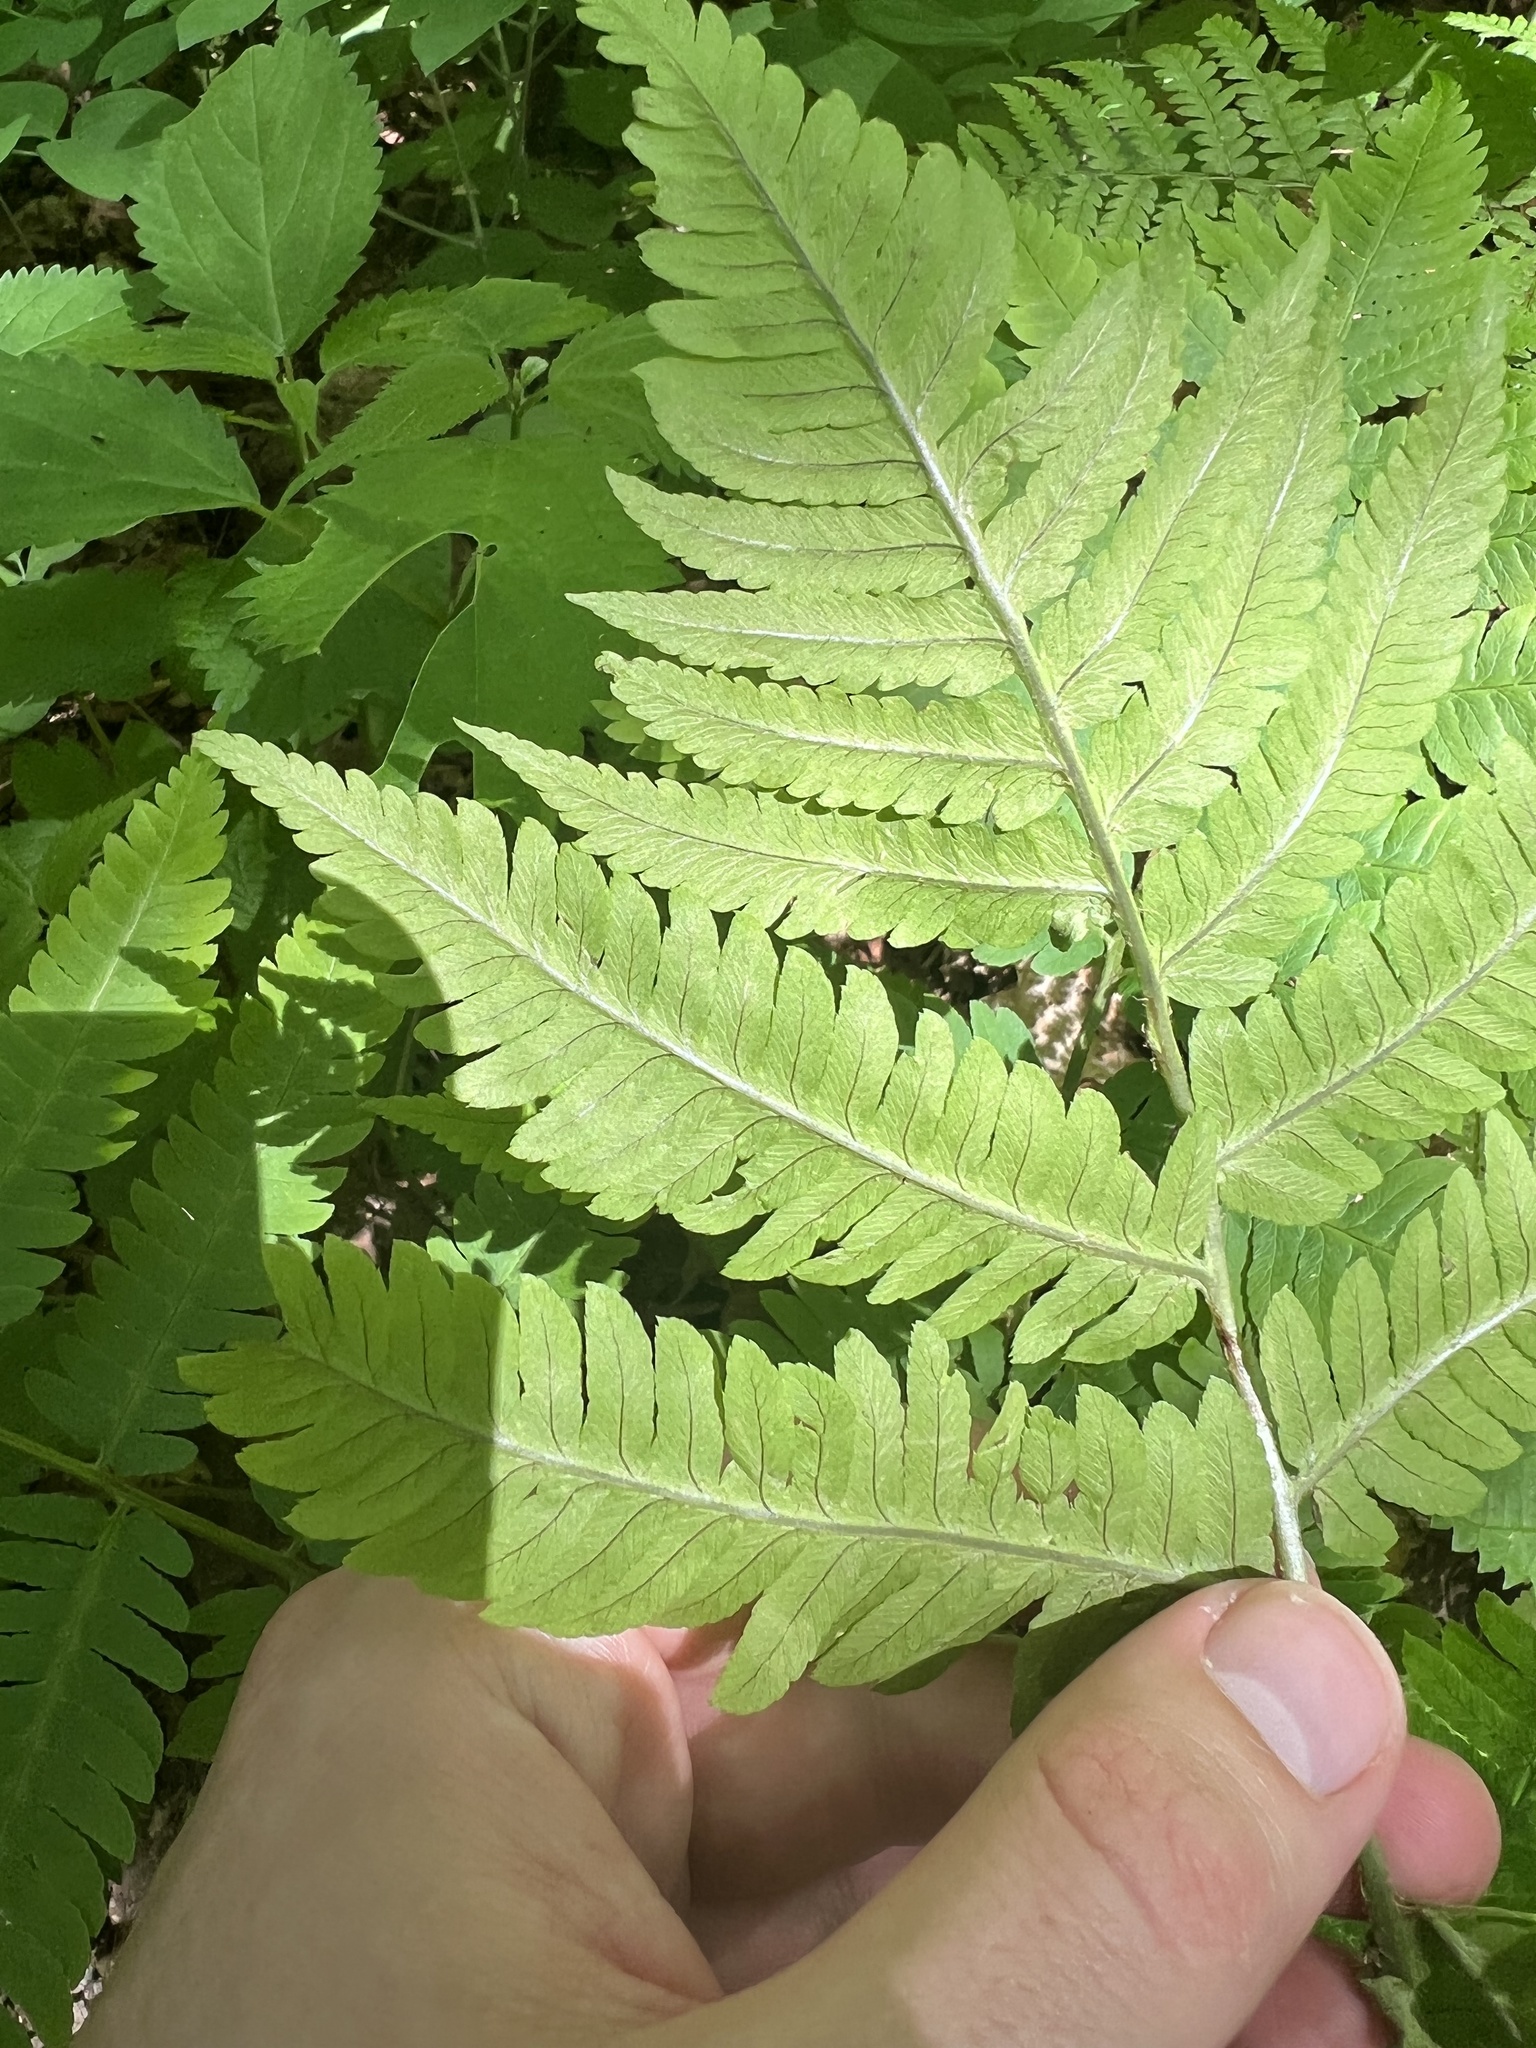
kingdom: Plantae
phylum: Tracheophyta
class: Polypodiopsida
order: Polypodiales
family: Dryopteridaceae
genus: Dryopteris
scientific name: Dryopteris goldieana
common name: Goldie's fern
